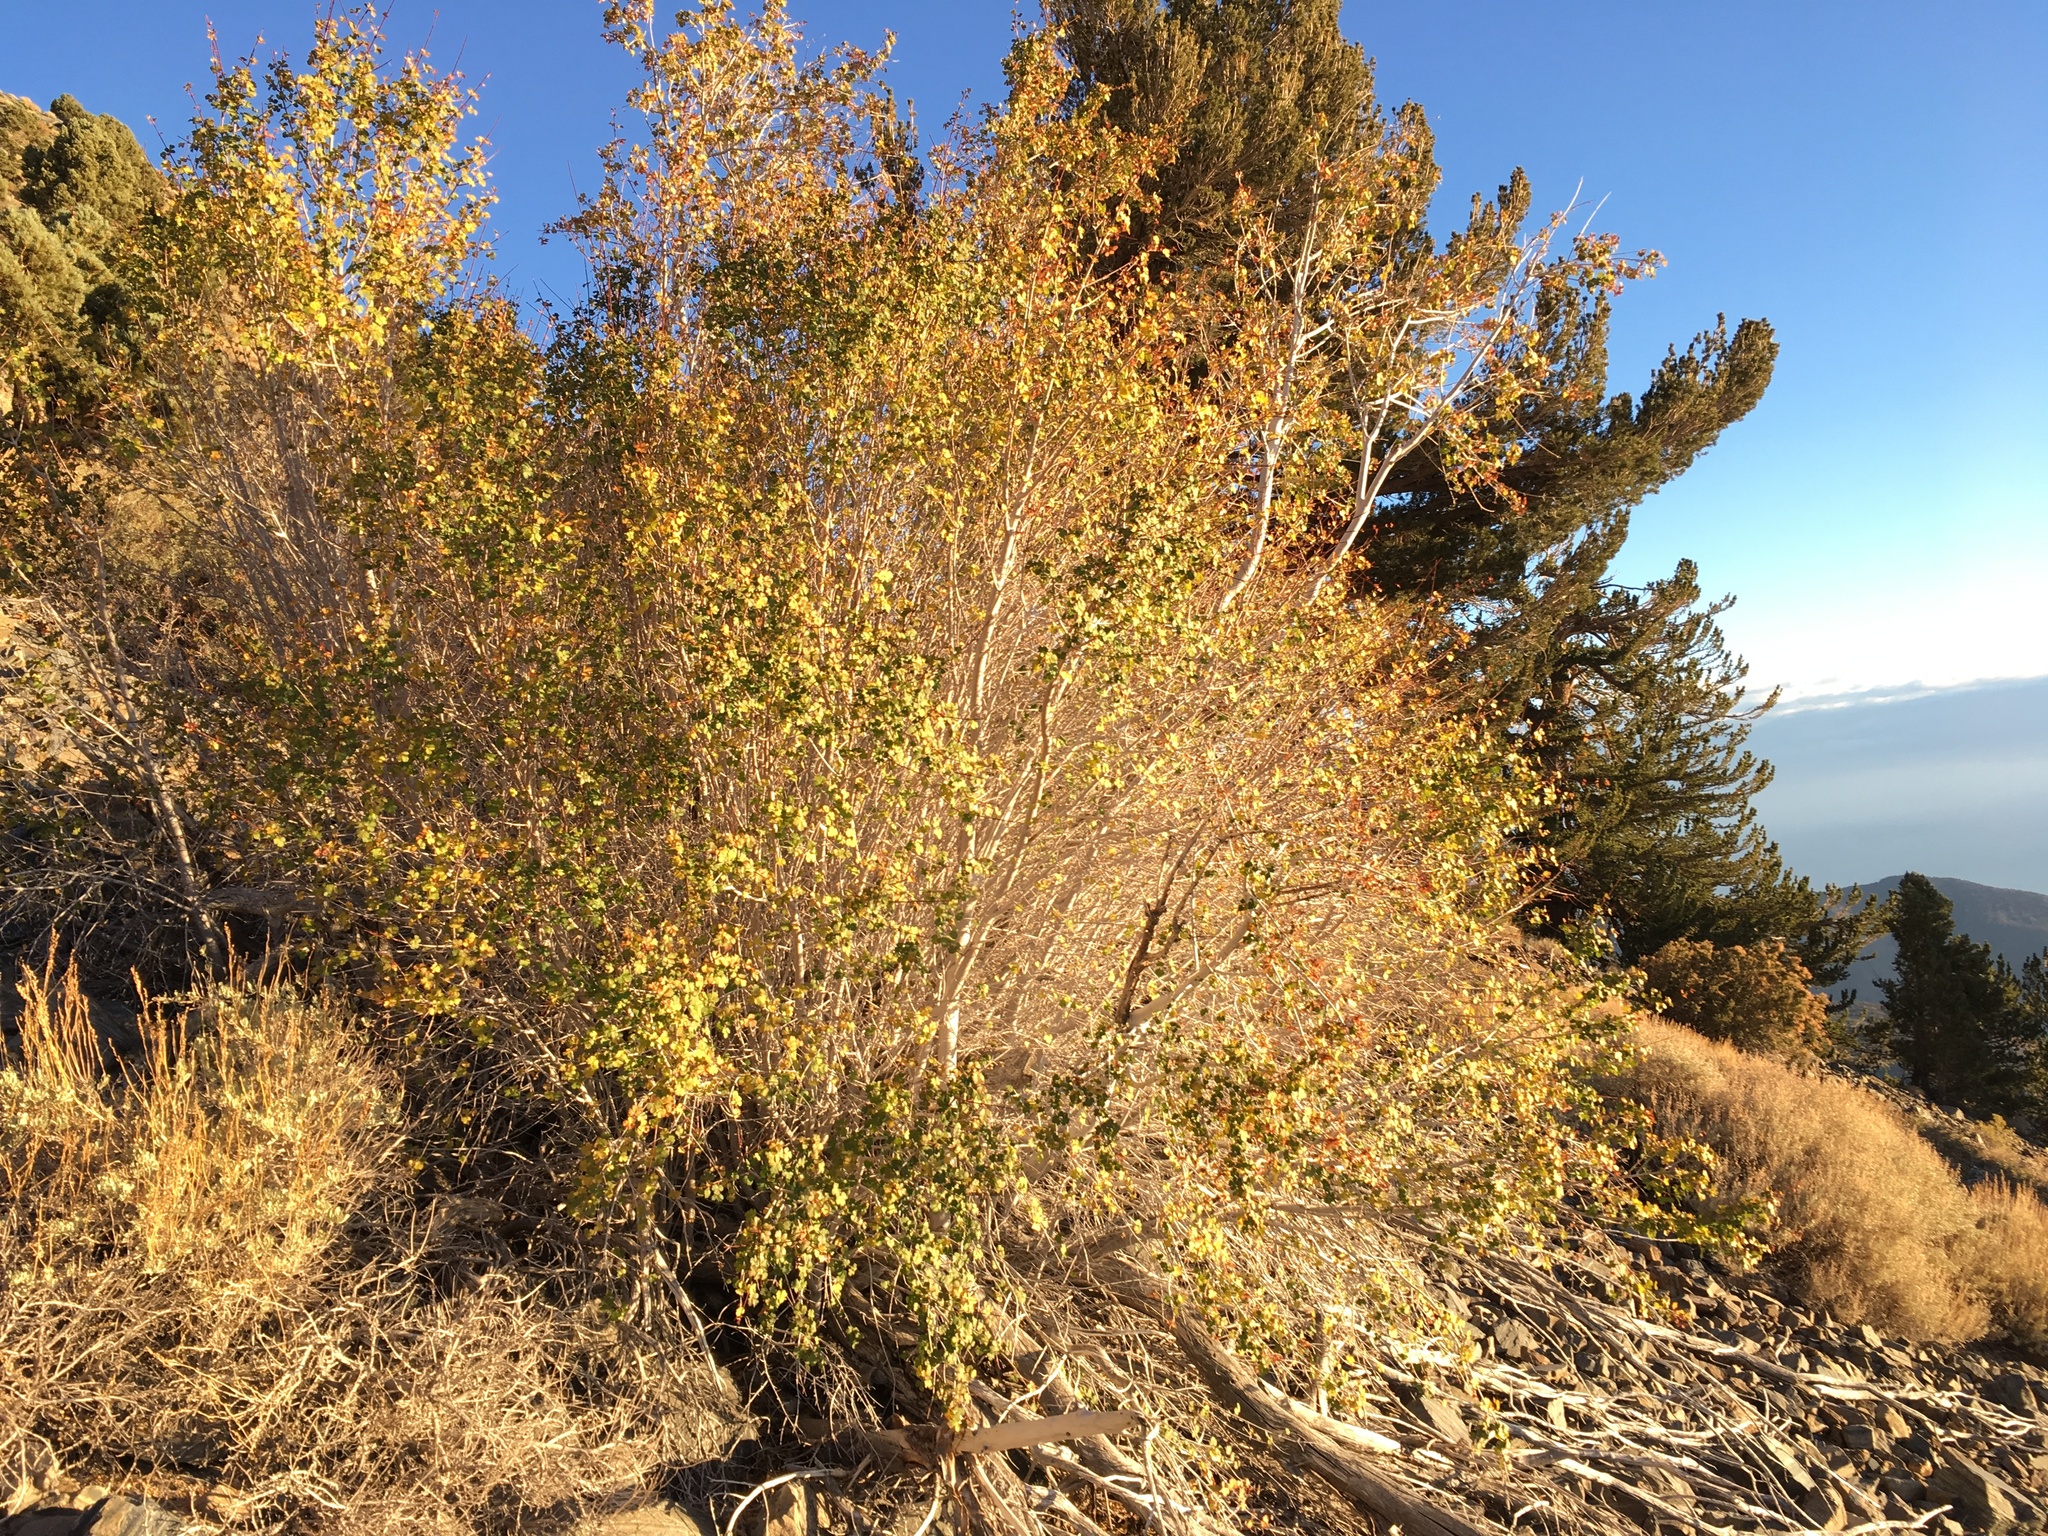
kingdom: Plantae
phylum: Tracheophyta
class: Magnoliopsida
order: Sapindales
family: Sapindaceae
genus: Acer
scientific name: Acer glabrum
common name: Rocky mountain maple
